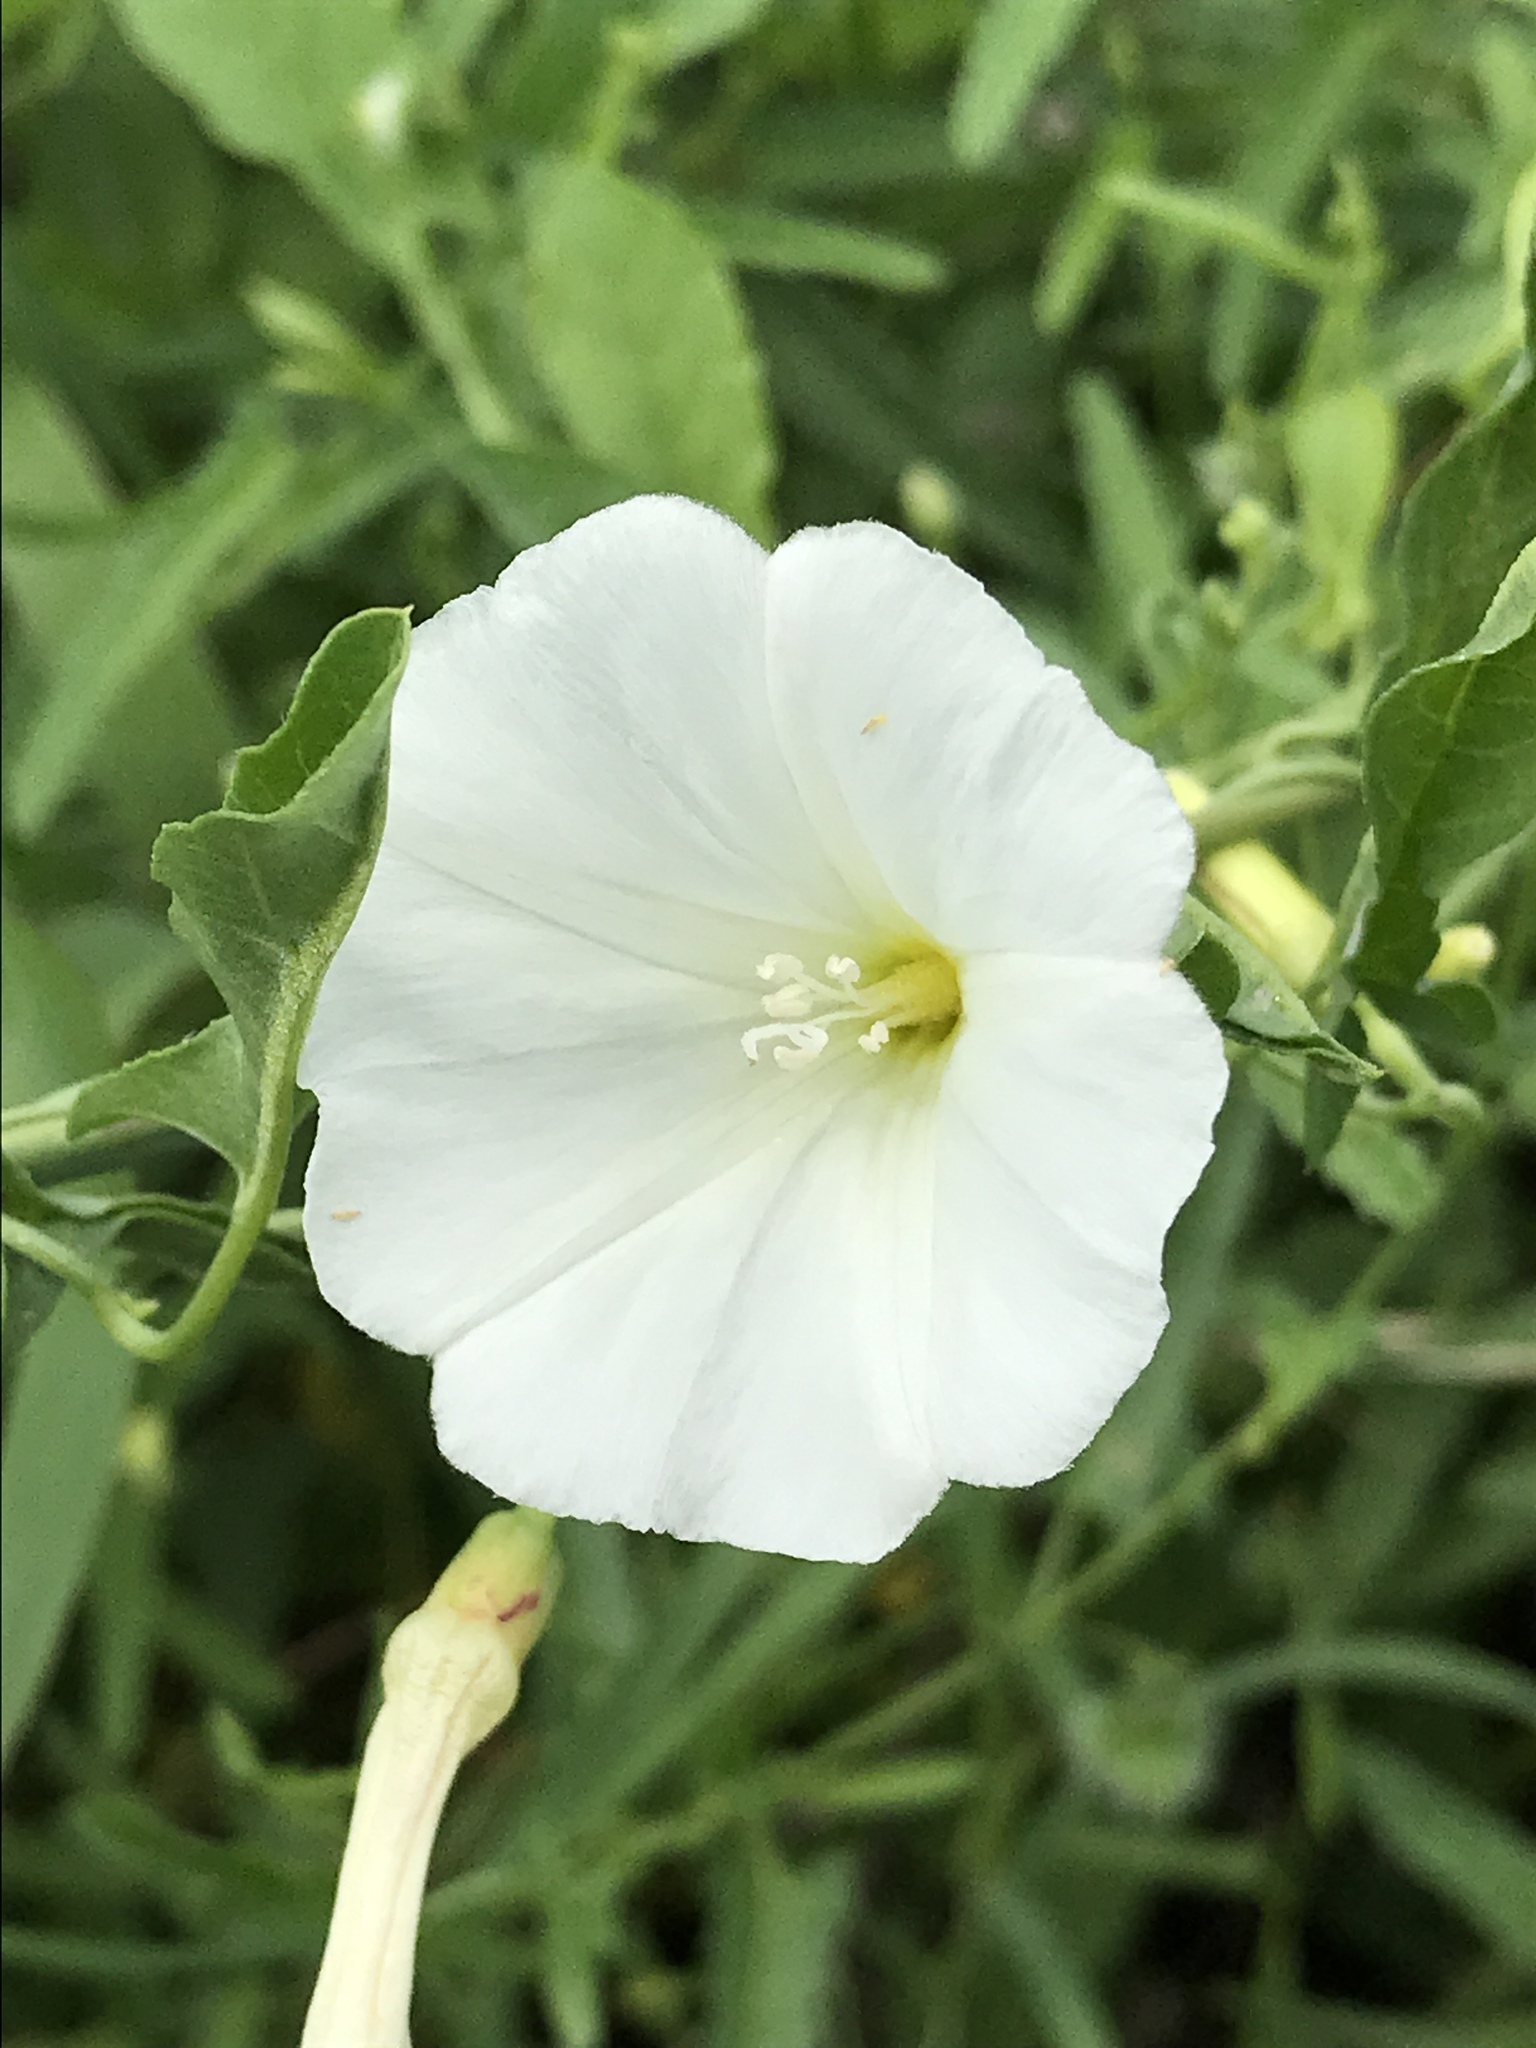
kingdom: Plantae
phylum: Tracheophyta
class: Magnoliopsida
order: Solanales
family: Convolvulaceae
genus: Convolvulus
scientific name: Convolvulus arvensis
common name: Field bindweed
